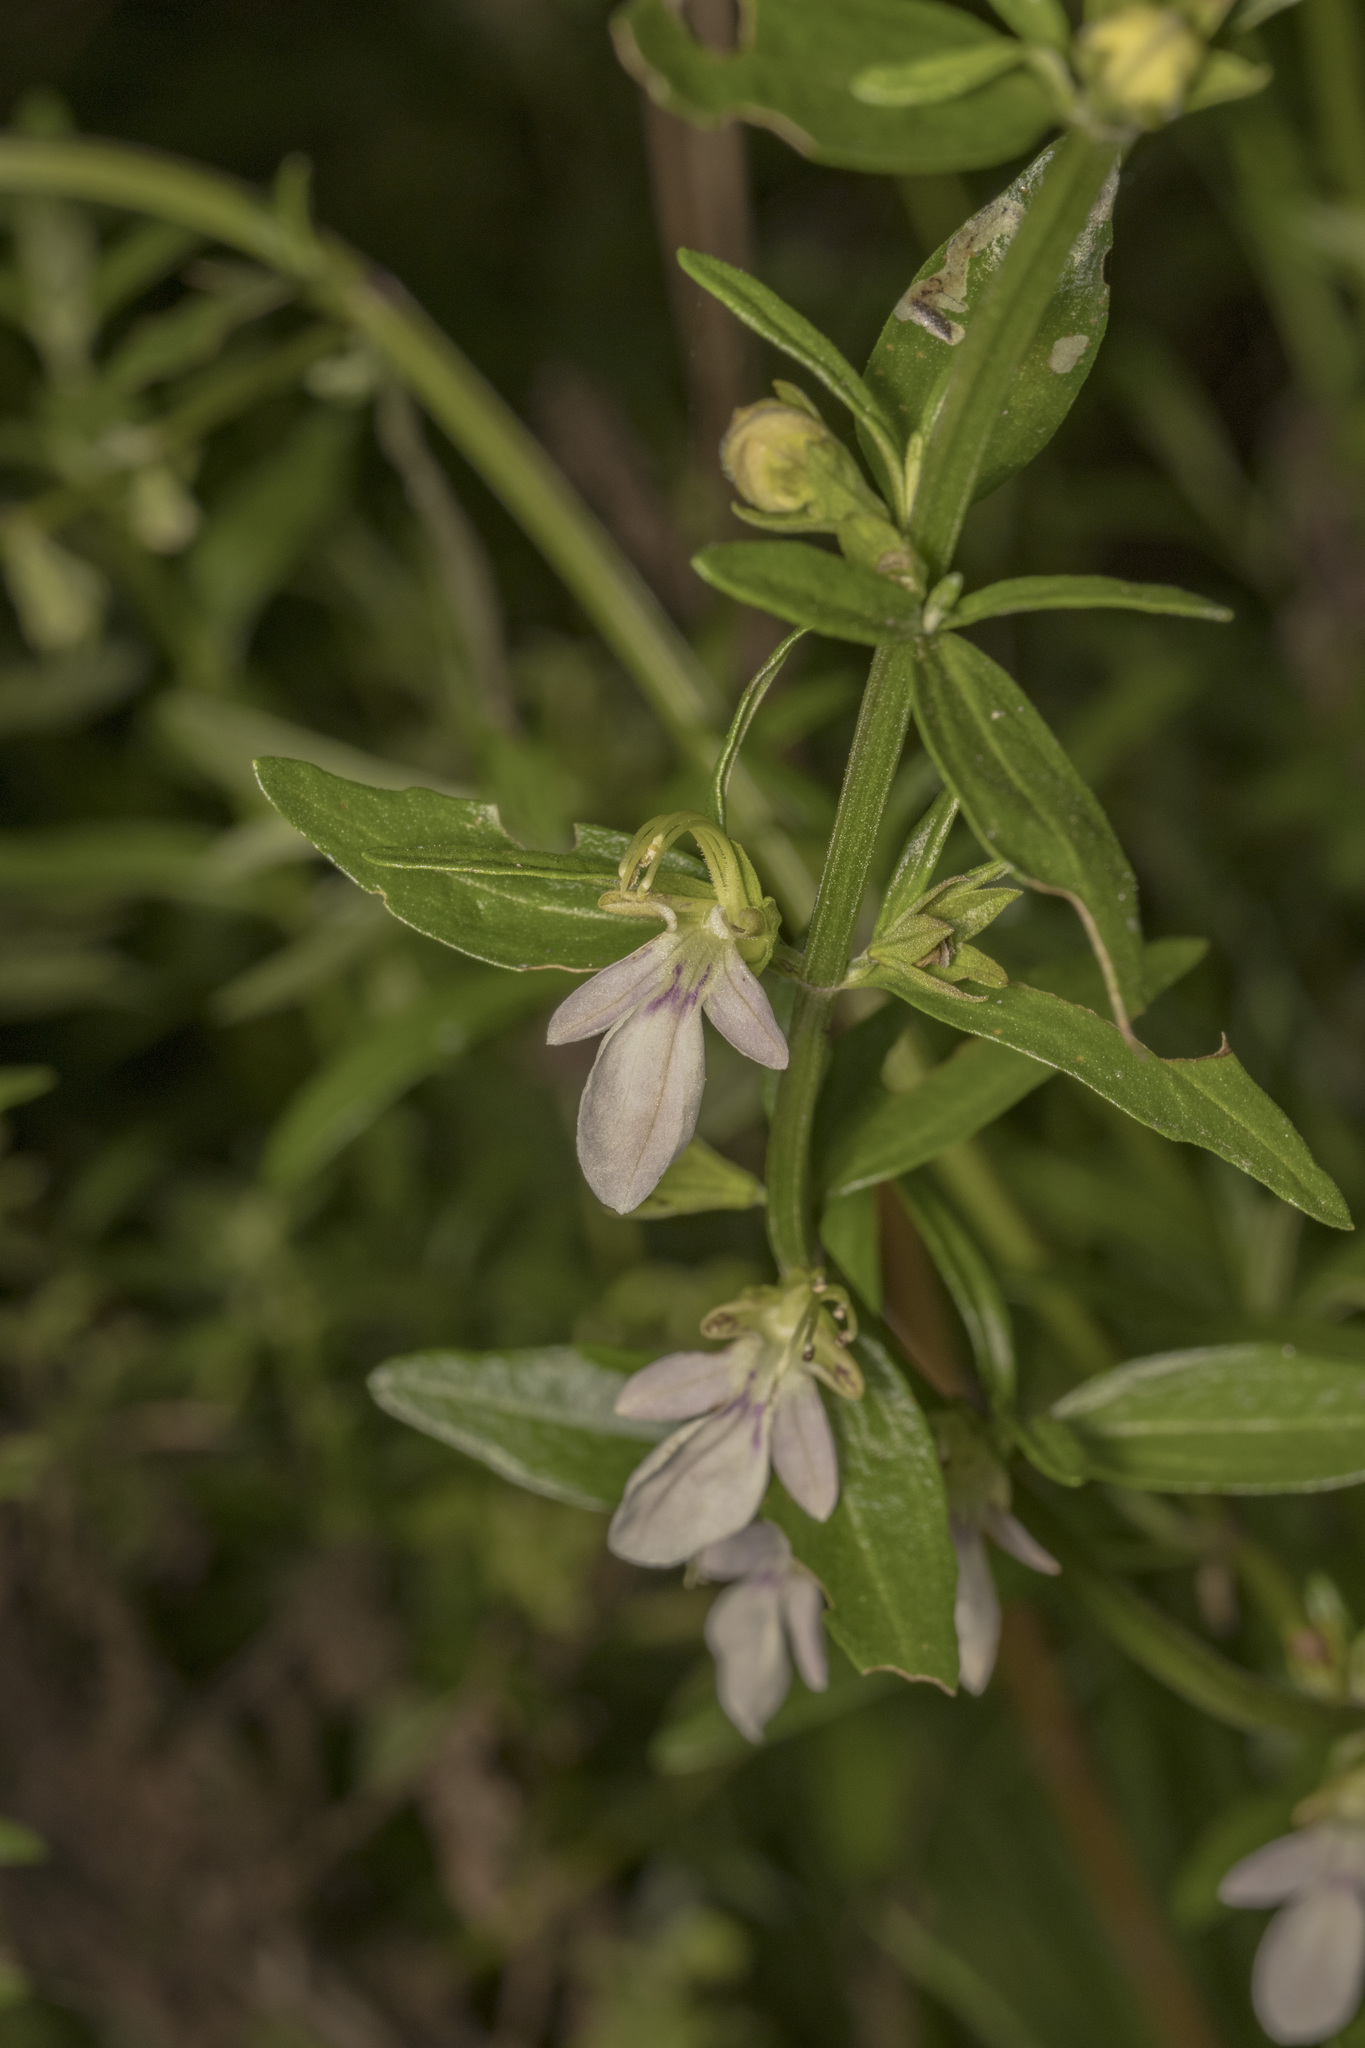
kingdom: Plantae
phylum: Tracheophyta
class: Magnoliopsida
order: Lamiales
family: Lamiaceae
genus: Teucrium
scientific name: Teucrium bicolor
